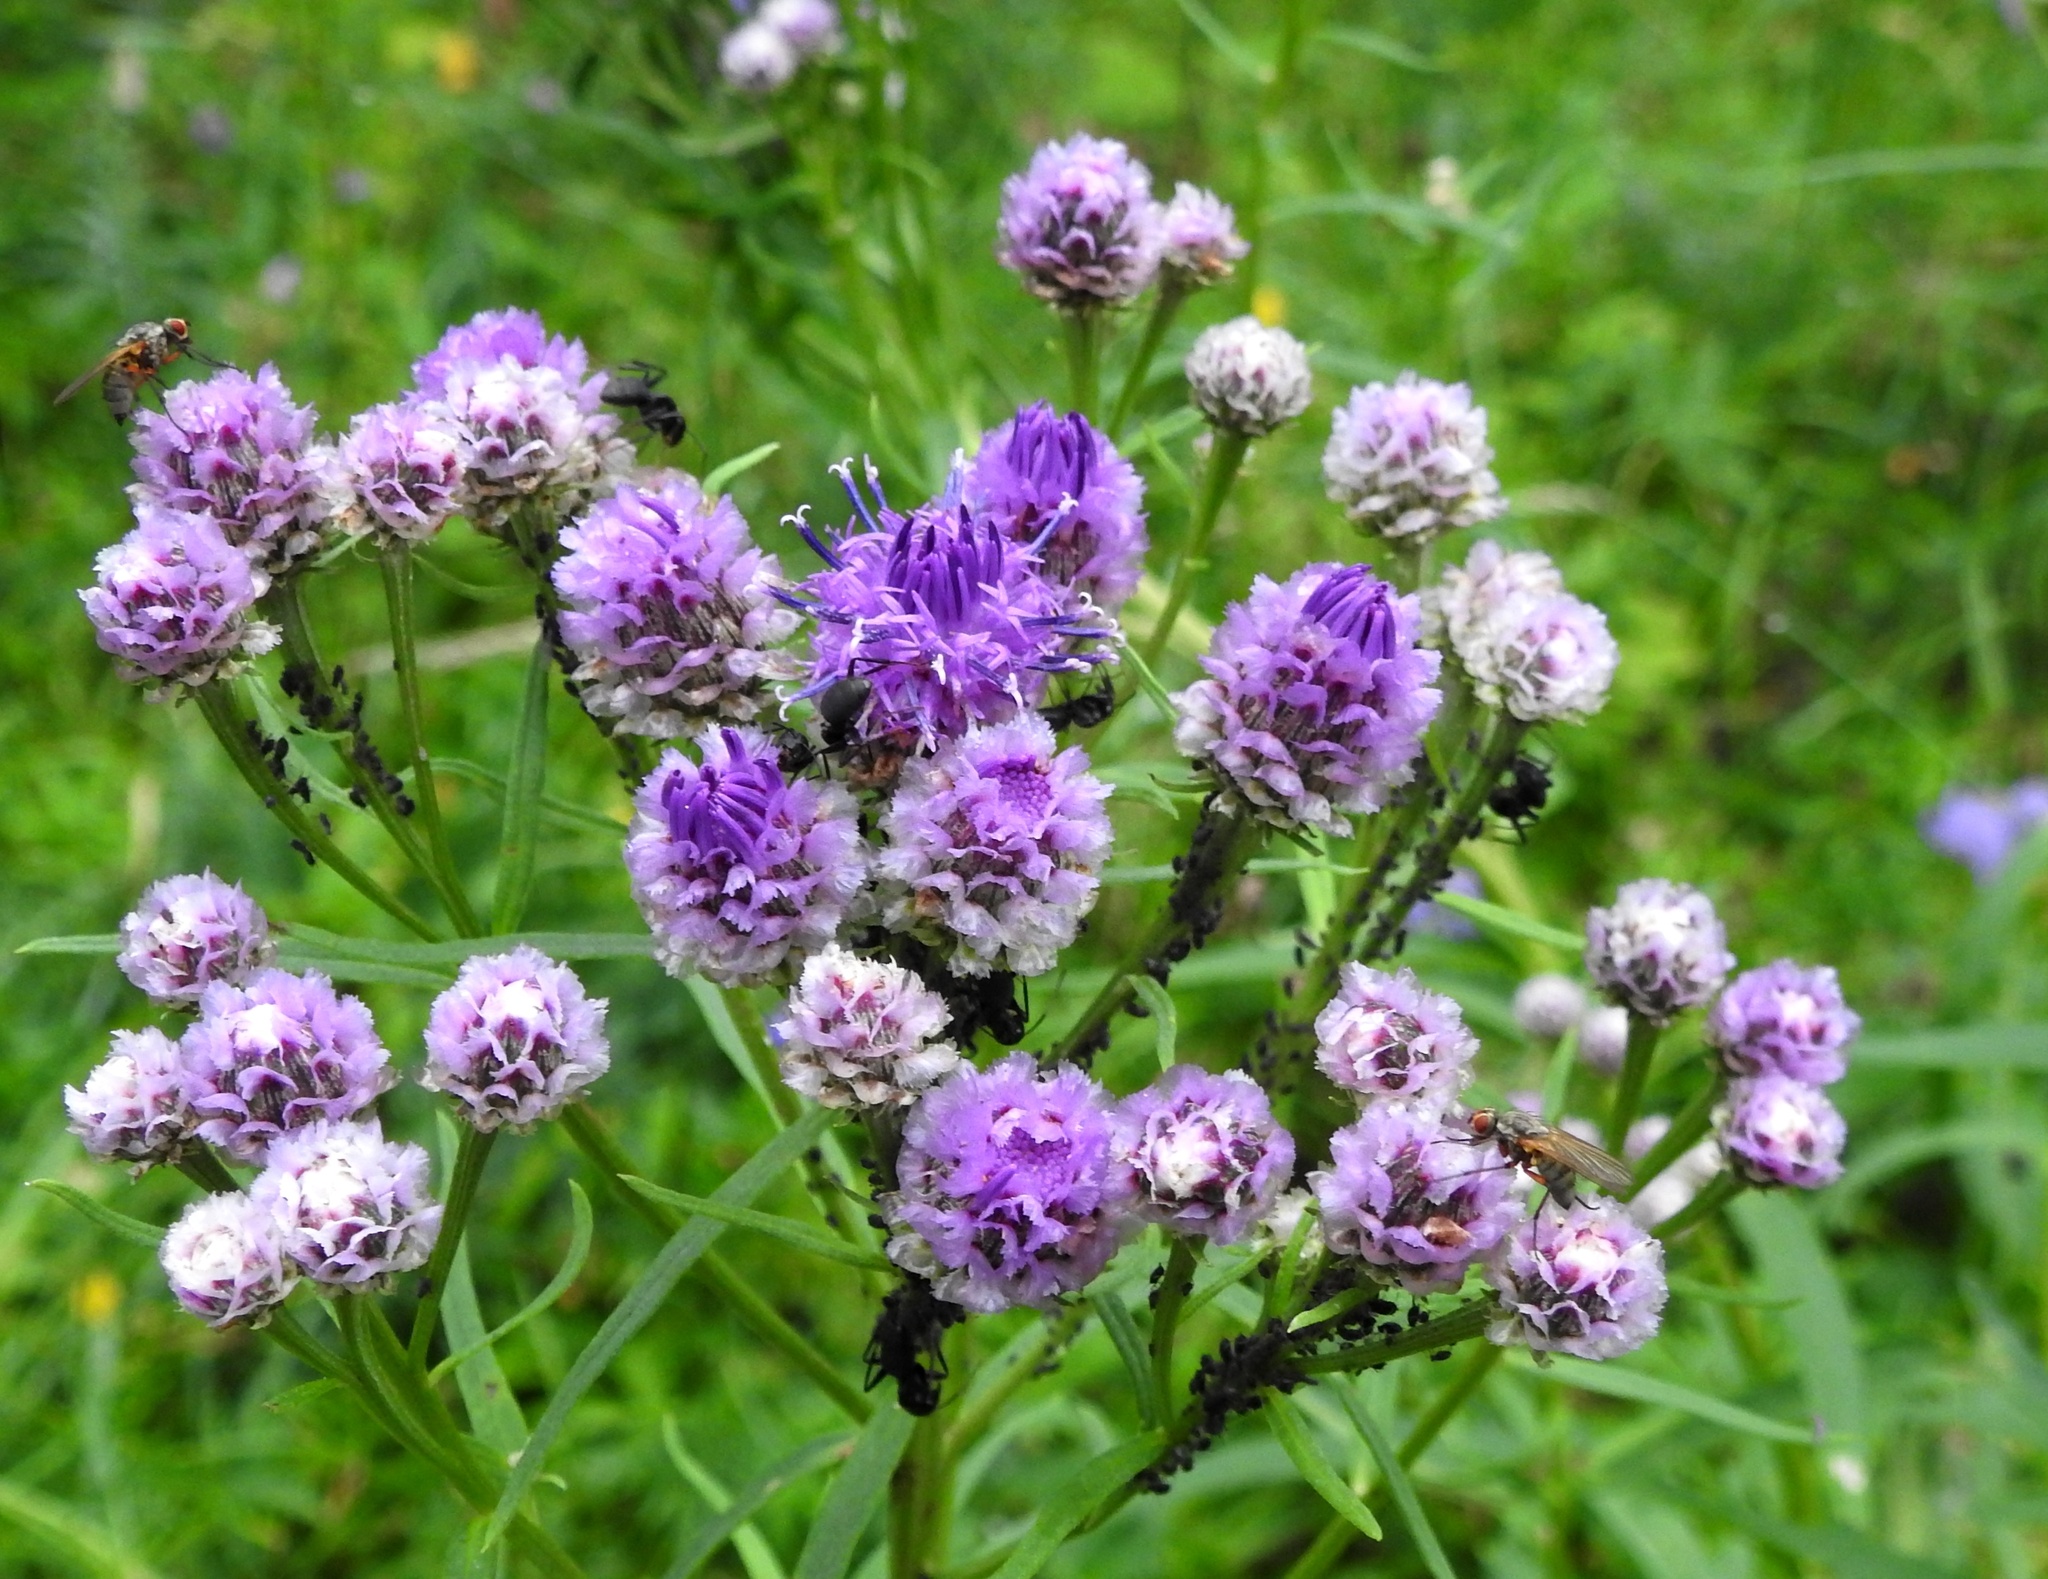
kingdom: Plantae
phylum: Tracheophyta
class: Magnoliopsida
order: Asterales
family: Asteraceae
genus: Saussurea
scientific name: Saussurea amara
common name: Alberta sawwort
